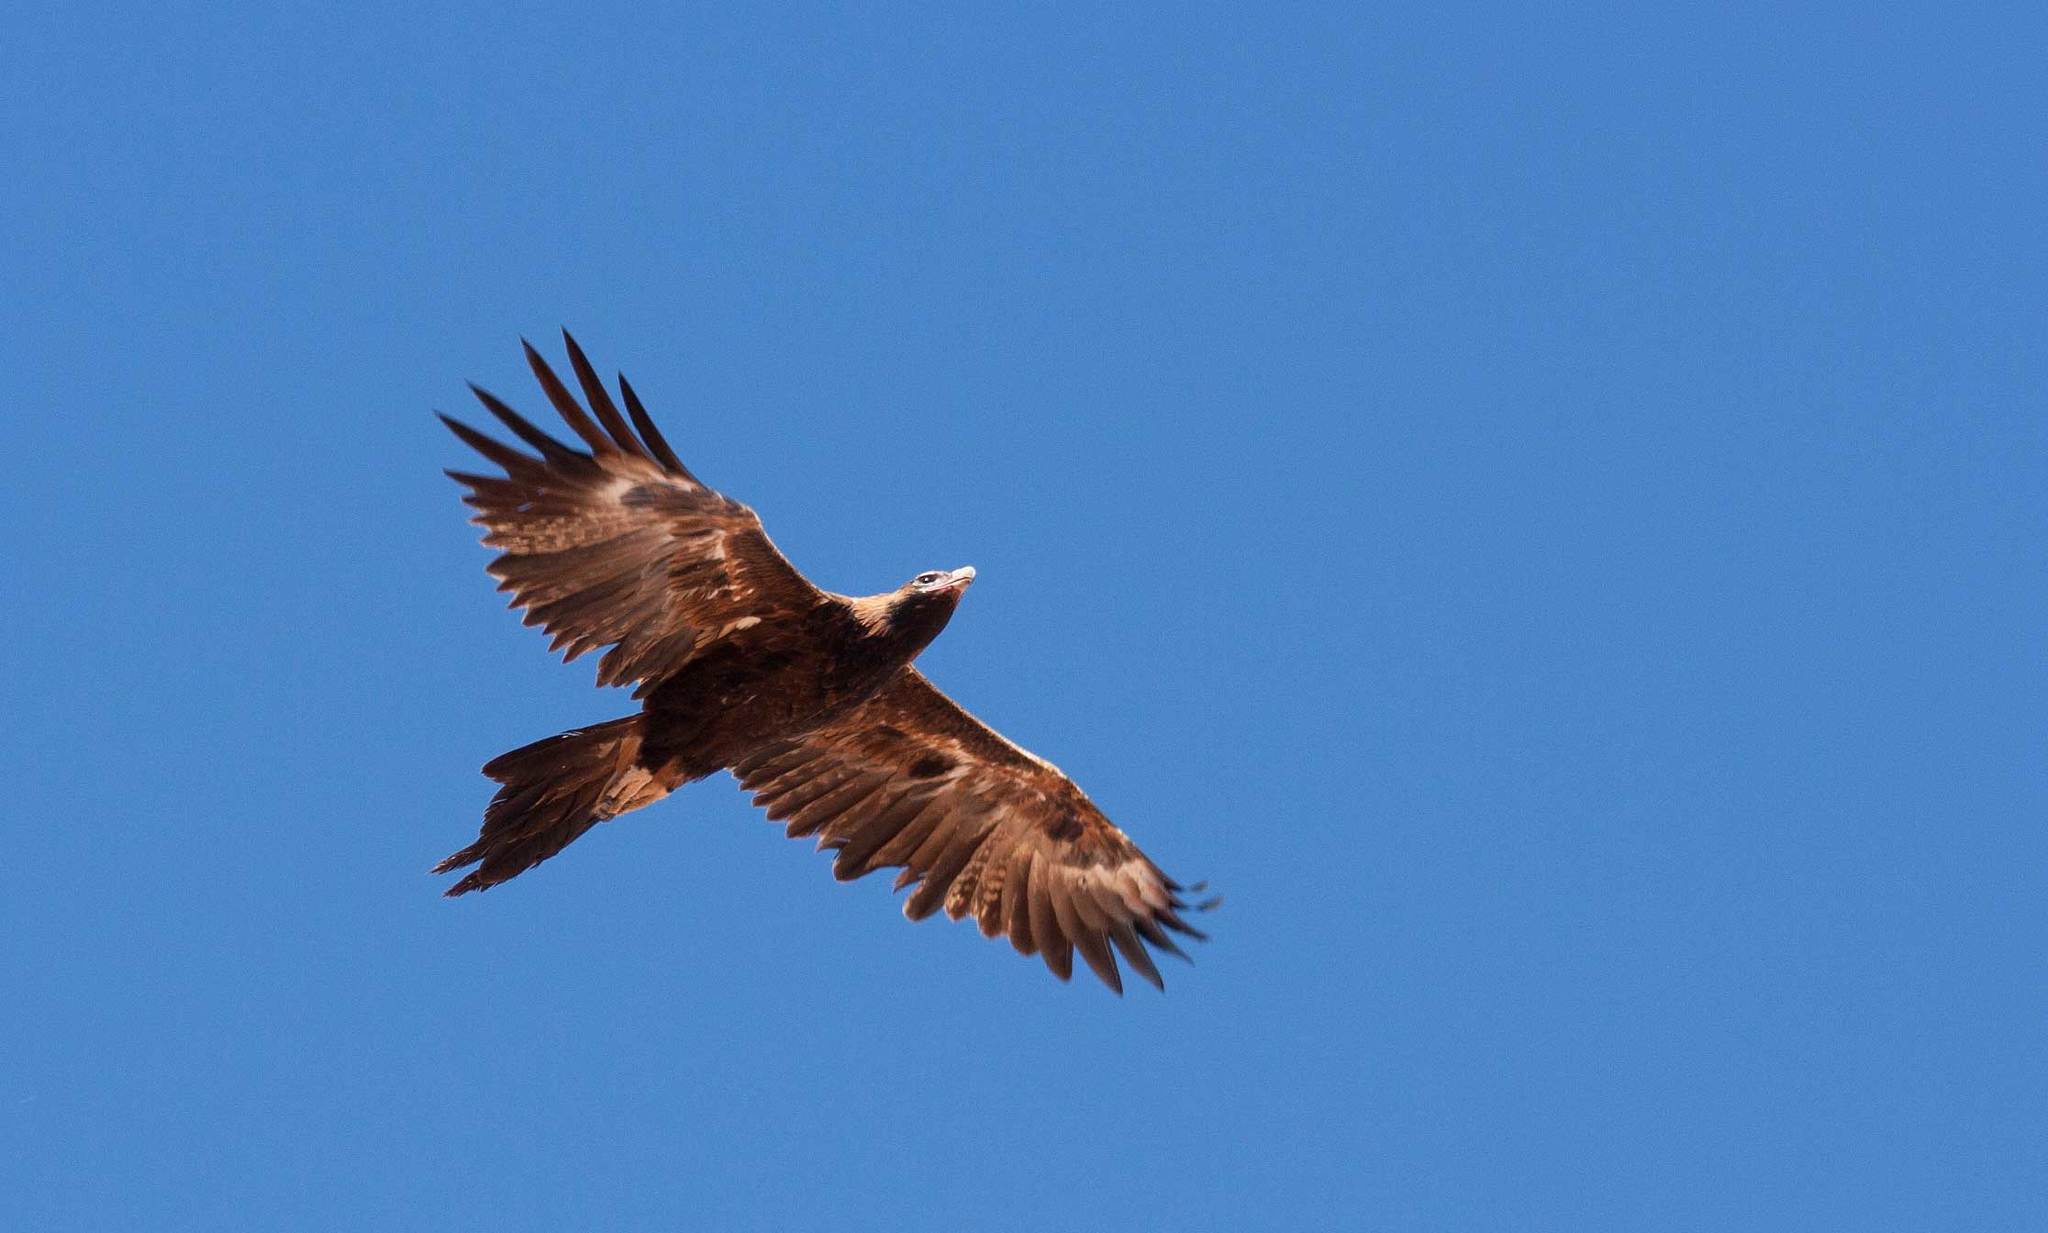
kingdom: Animalia
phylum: Chordata
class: Aves
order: Accipitriformes
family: Accipitridae
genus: Aquila
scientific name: Aquila audax
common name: Wedge-tailed eagle
